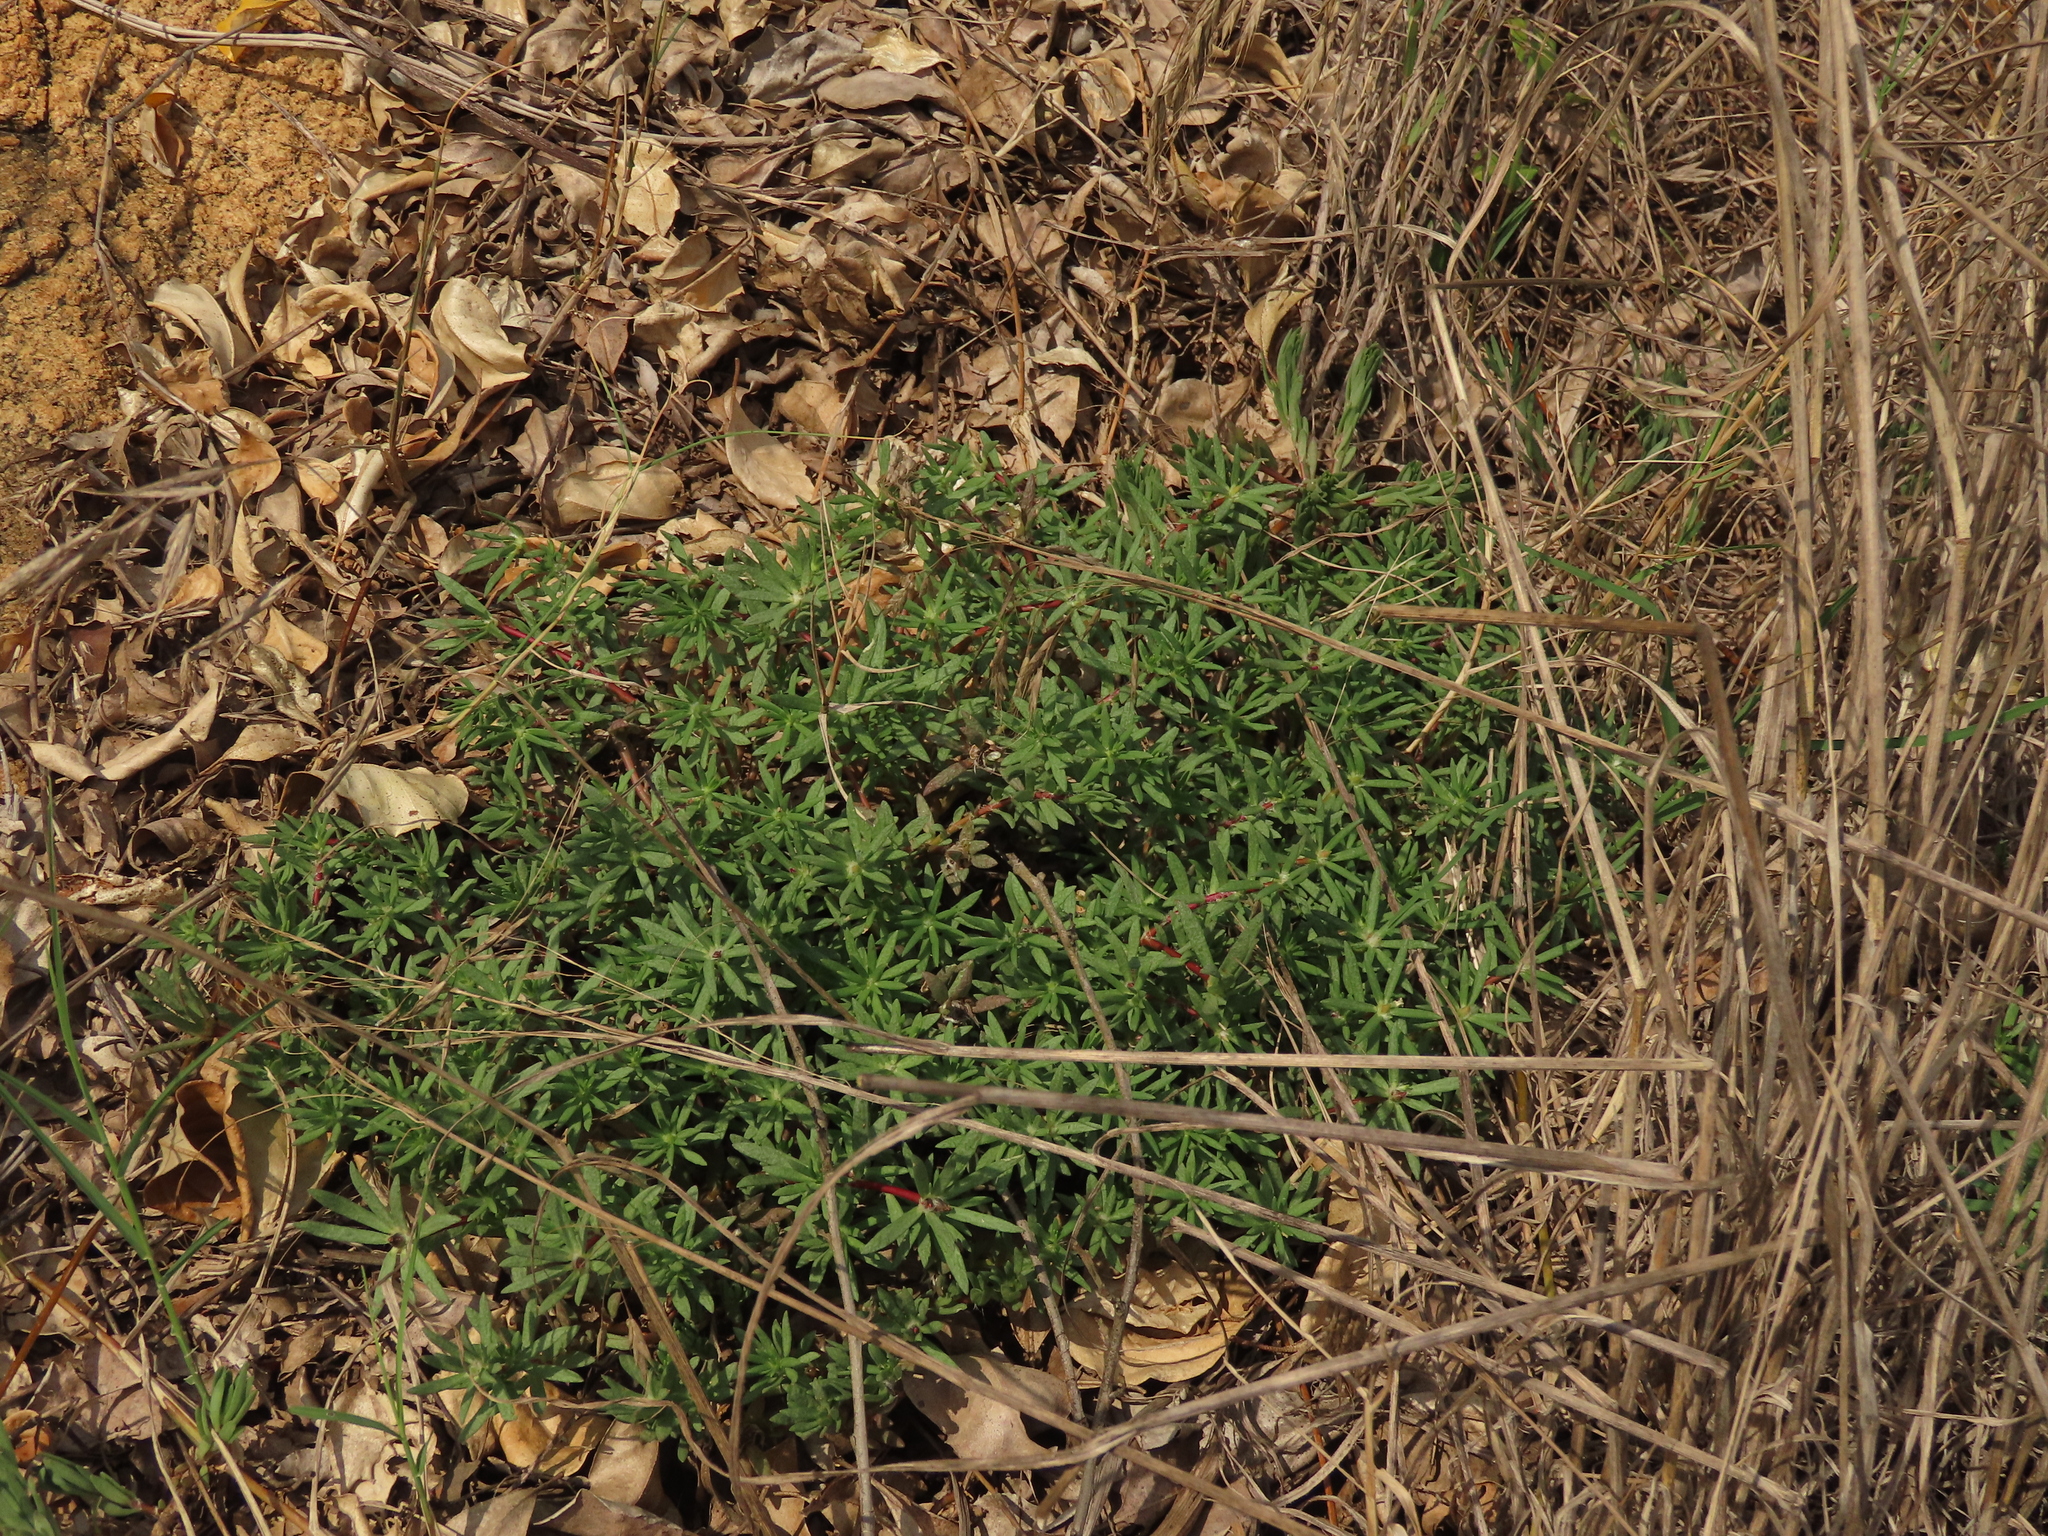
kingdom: Plantae
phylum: Tracheophyta
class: Magnoliopsida
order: Caryophyllales
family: Portulacaceae
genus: Portulaca
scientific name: Portulaca pilosa
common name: Kiss me quick
